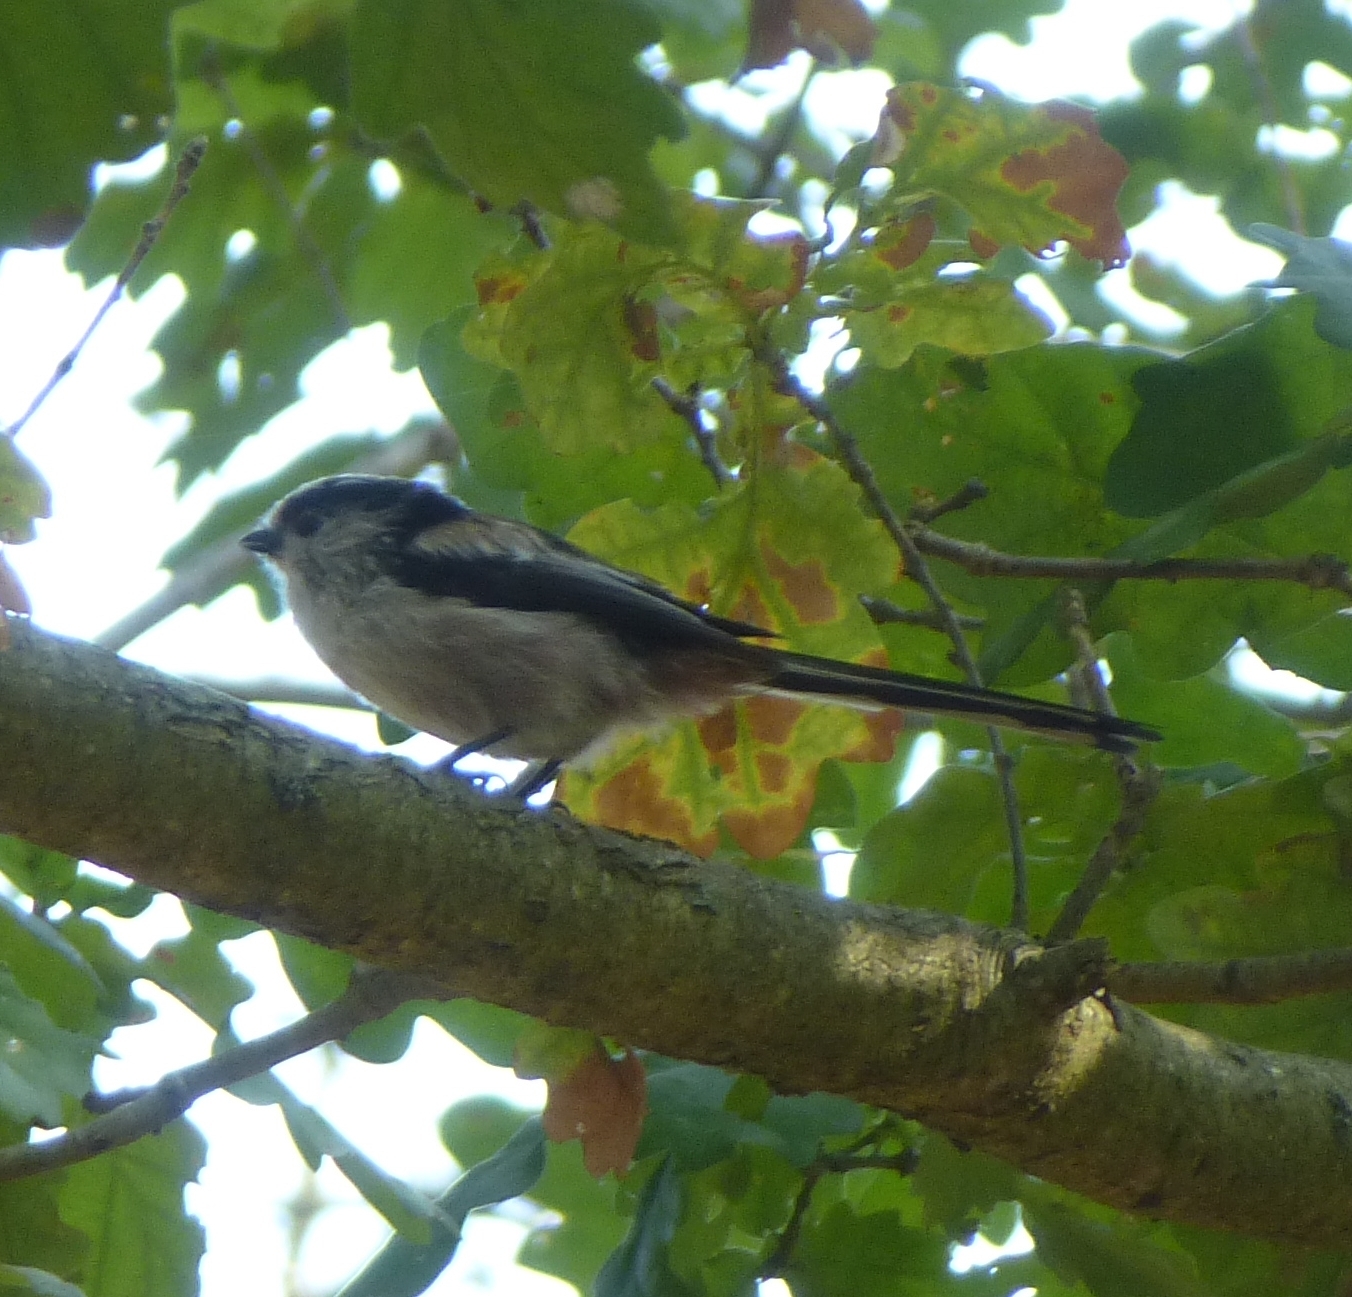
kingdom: Animalia
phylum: Chordata
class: Aves
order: Passeriformes
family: Aegithalidae
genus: Aegithalos
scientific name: Aegithalos caudatus
